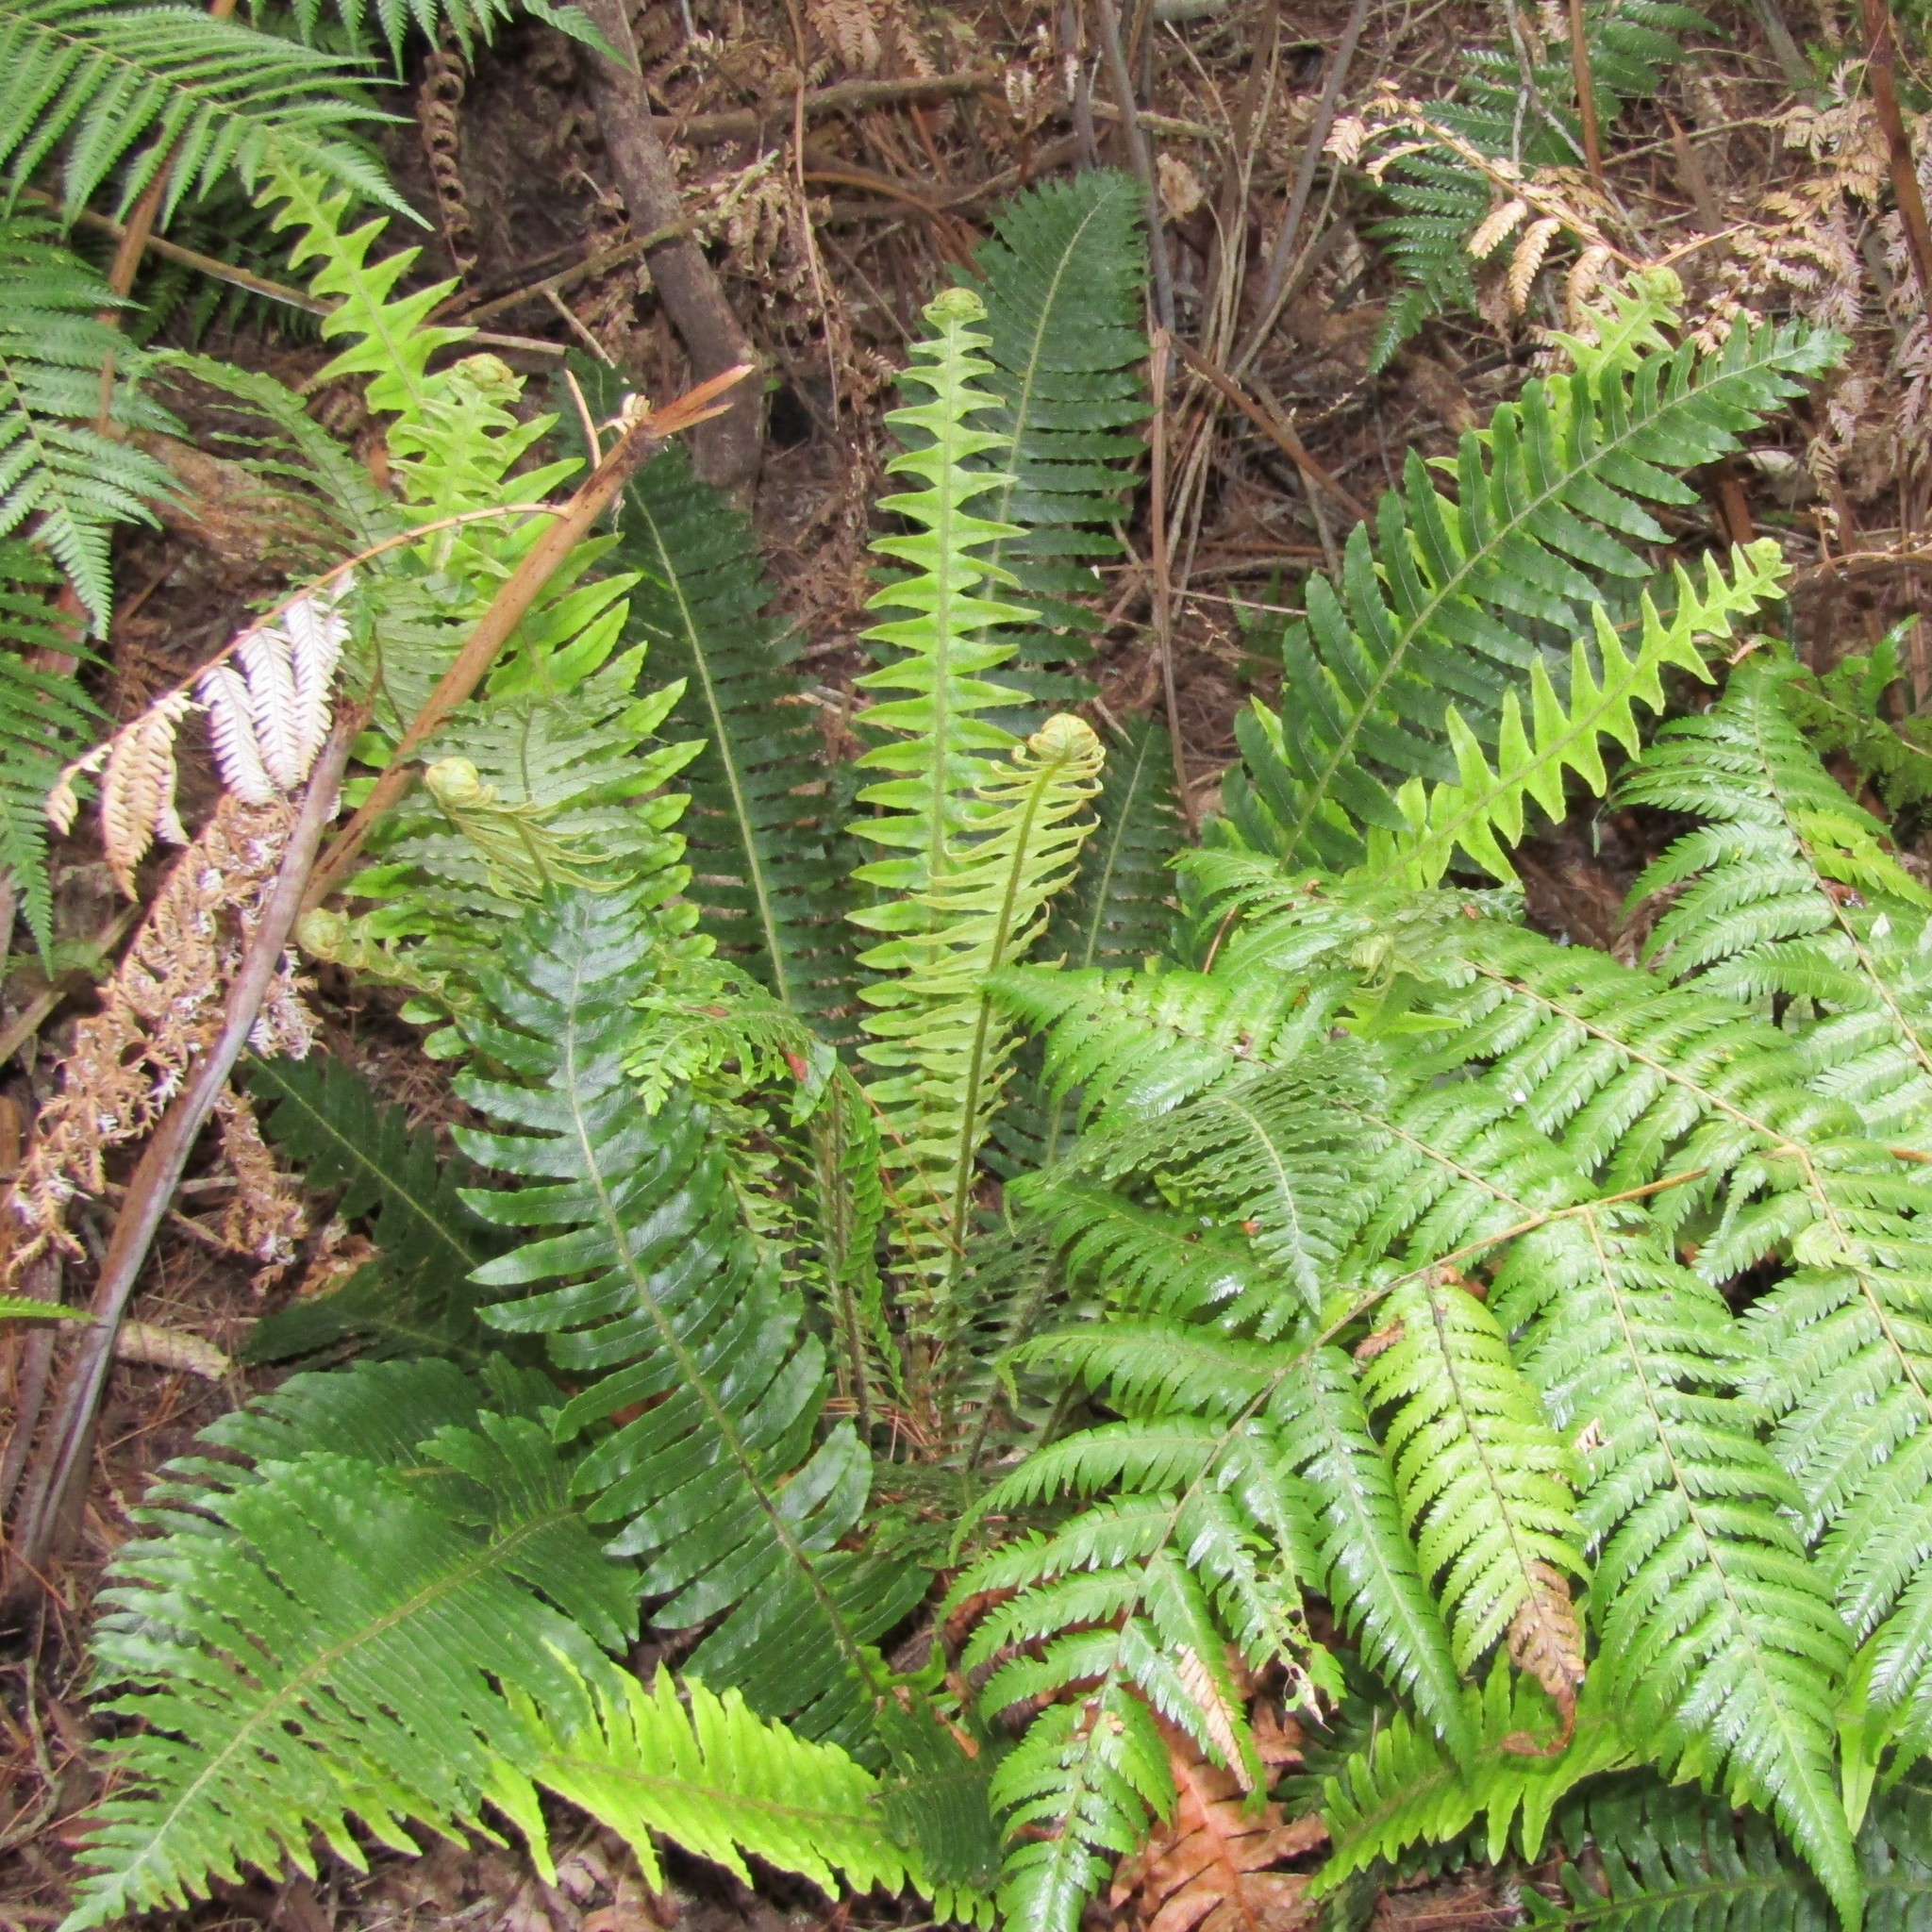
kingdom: Plantae
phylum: Tracheophyta
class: Polypodiopsida
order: Polypodiales
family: Blechnaceae
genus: Lomaria
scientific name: Lomaria discolor
